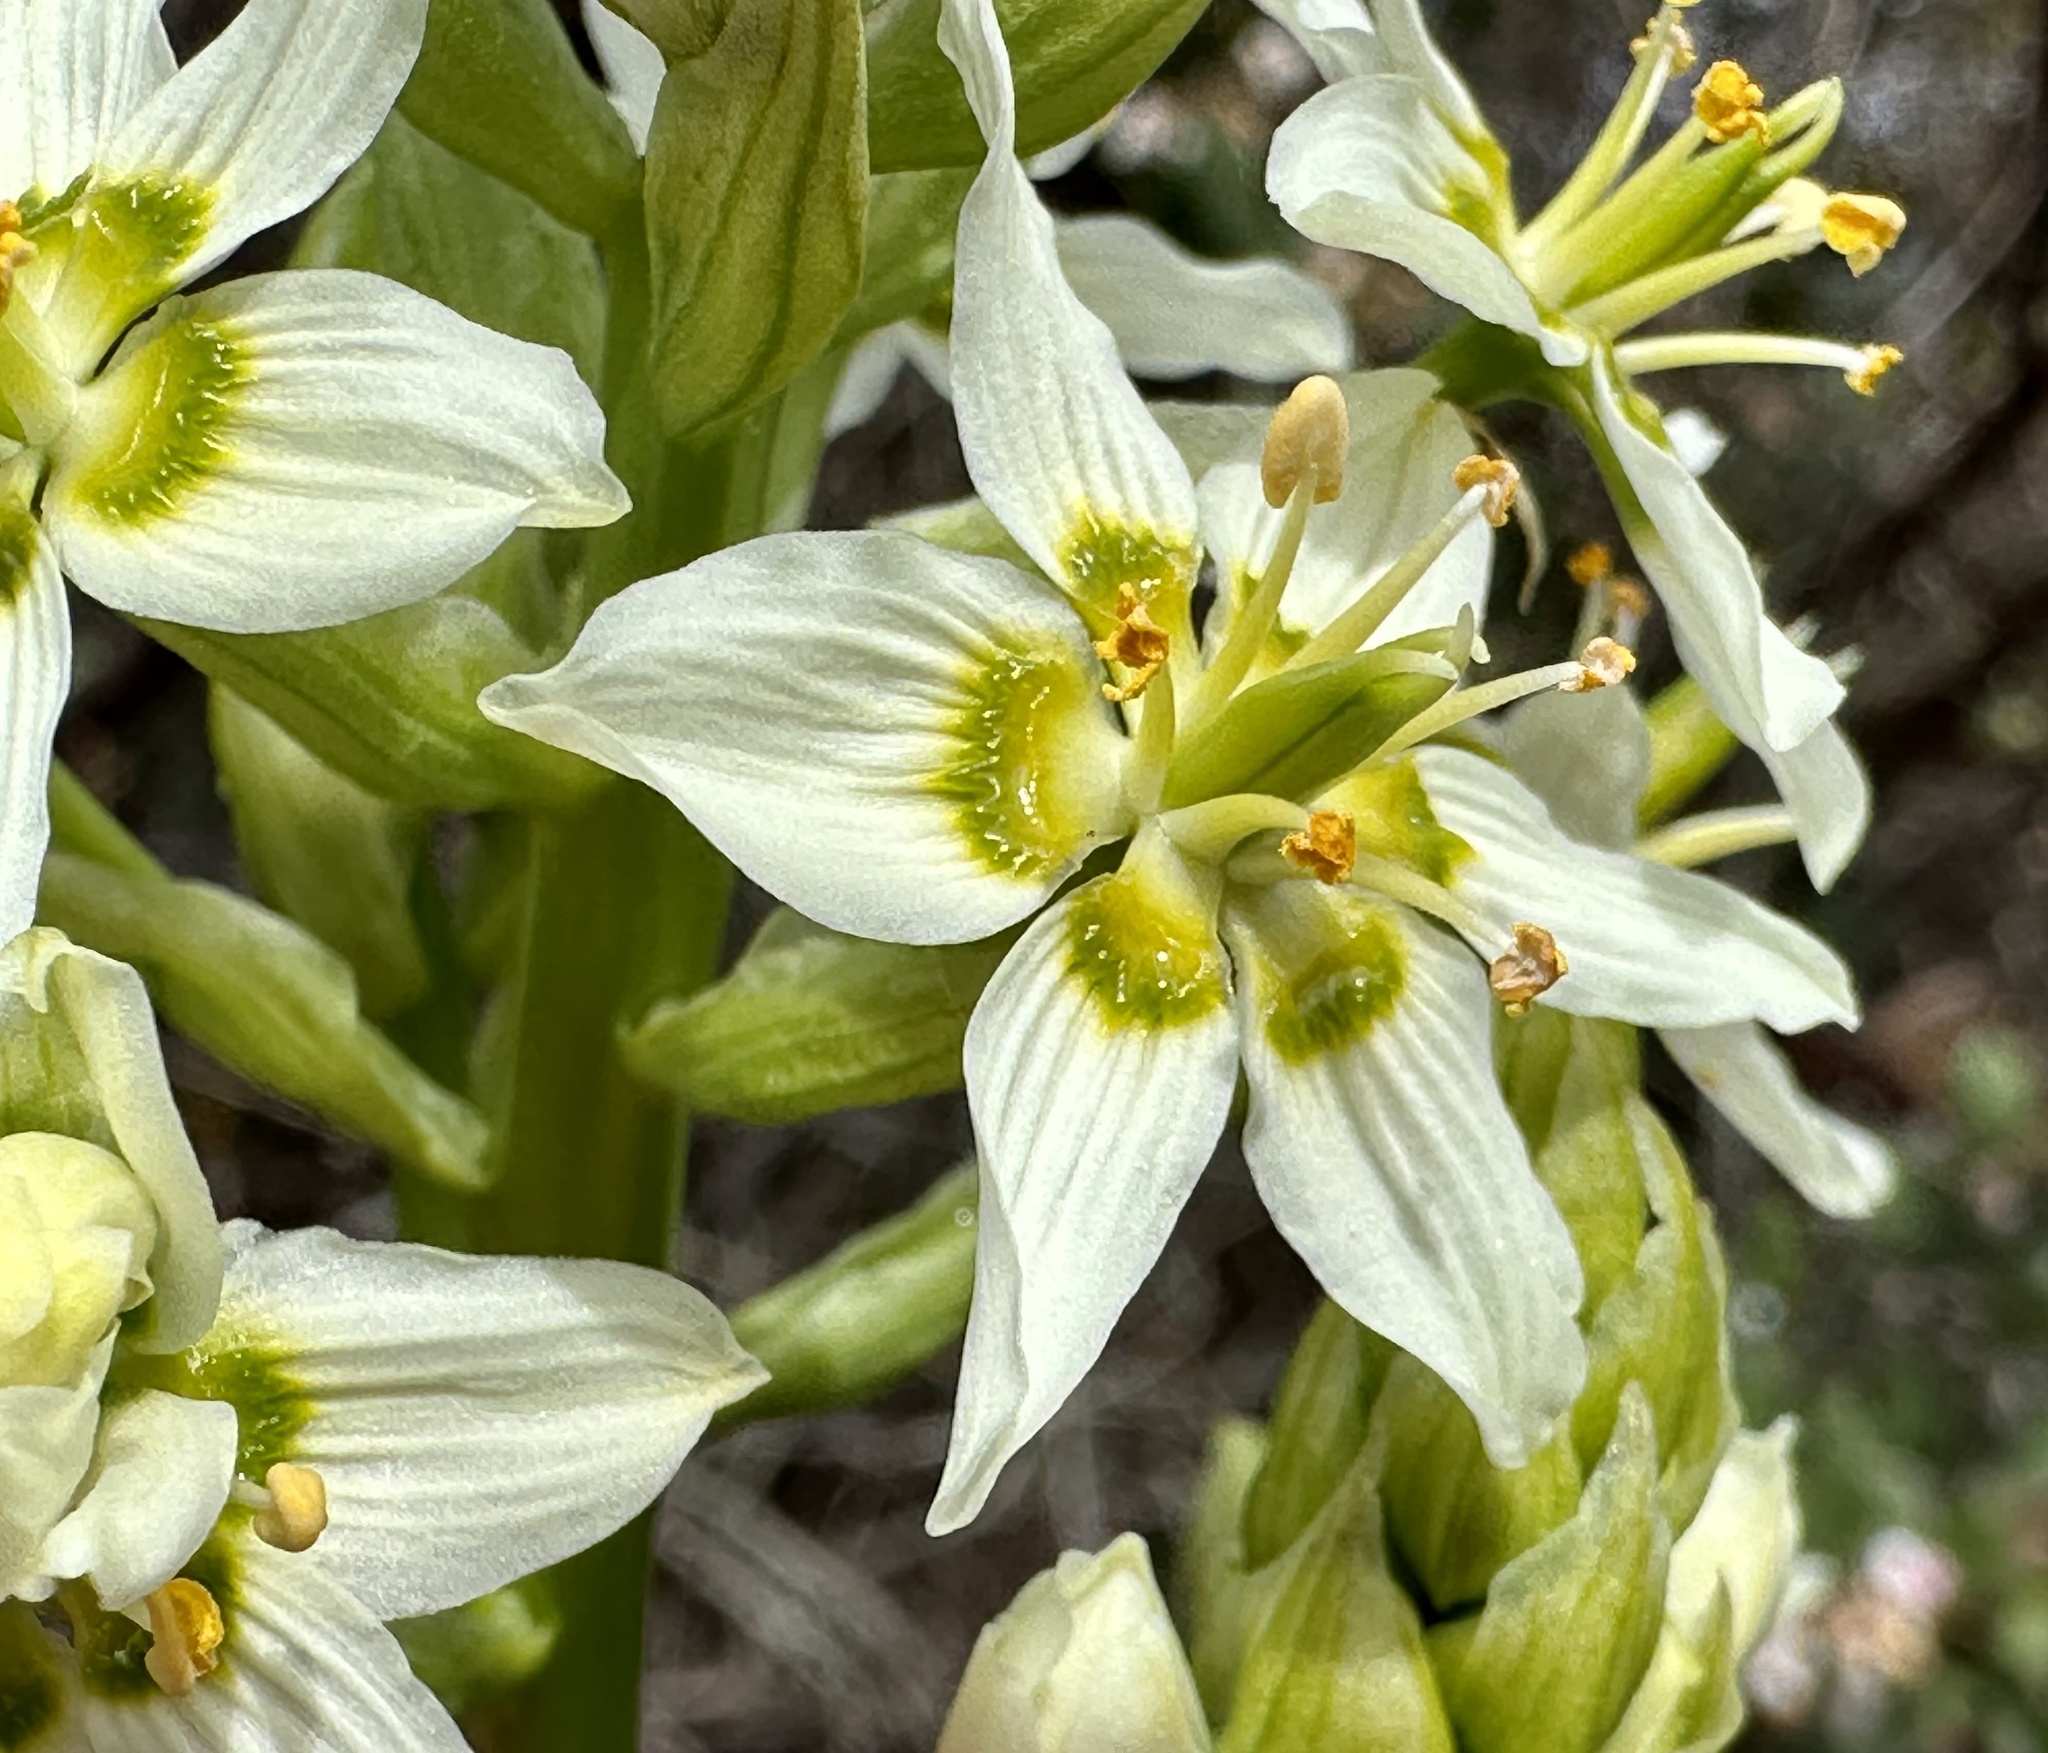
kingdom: Plantae
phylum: Tracheophyta
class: Liliopsida
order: Liliales
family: Melanthiaceae
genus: Toxicoscordion
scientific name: Toxicoscordion fremontii
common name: Fremont's death camas
